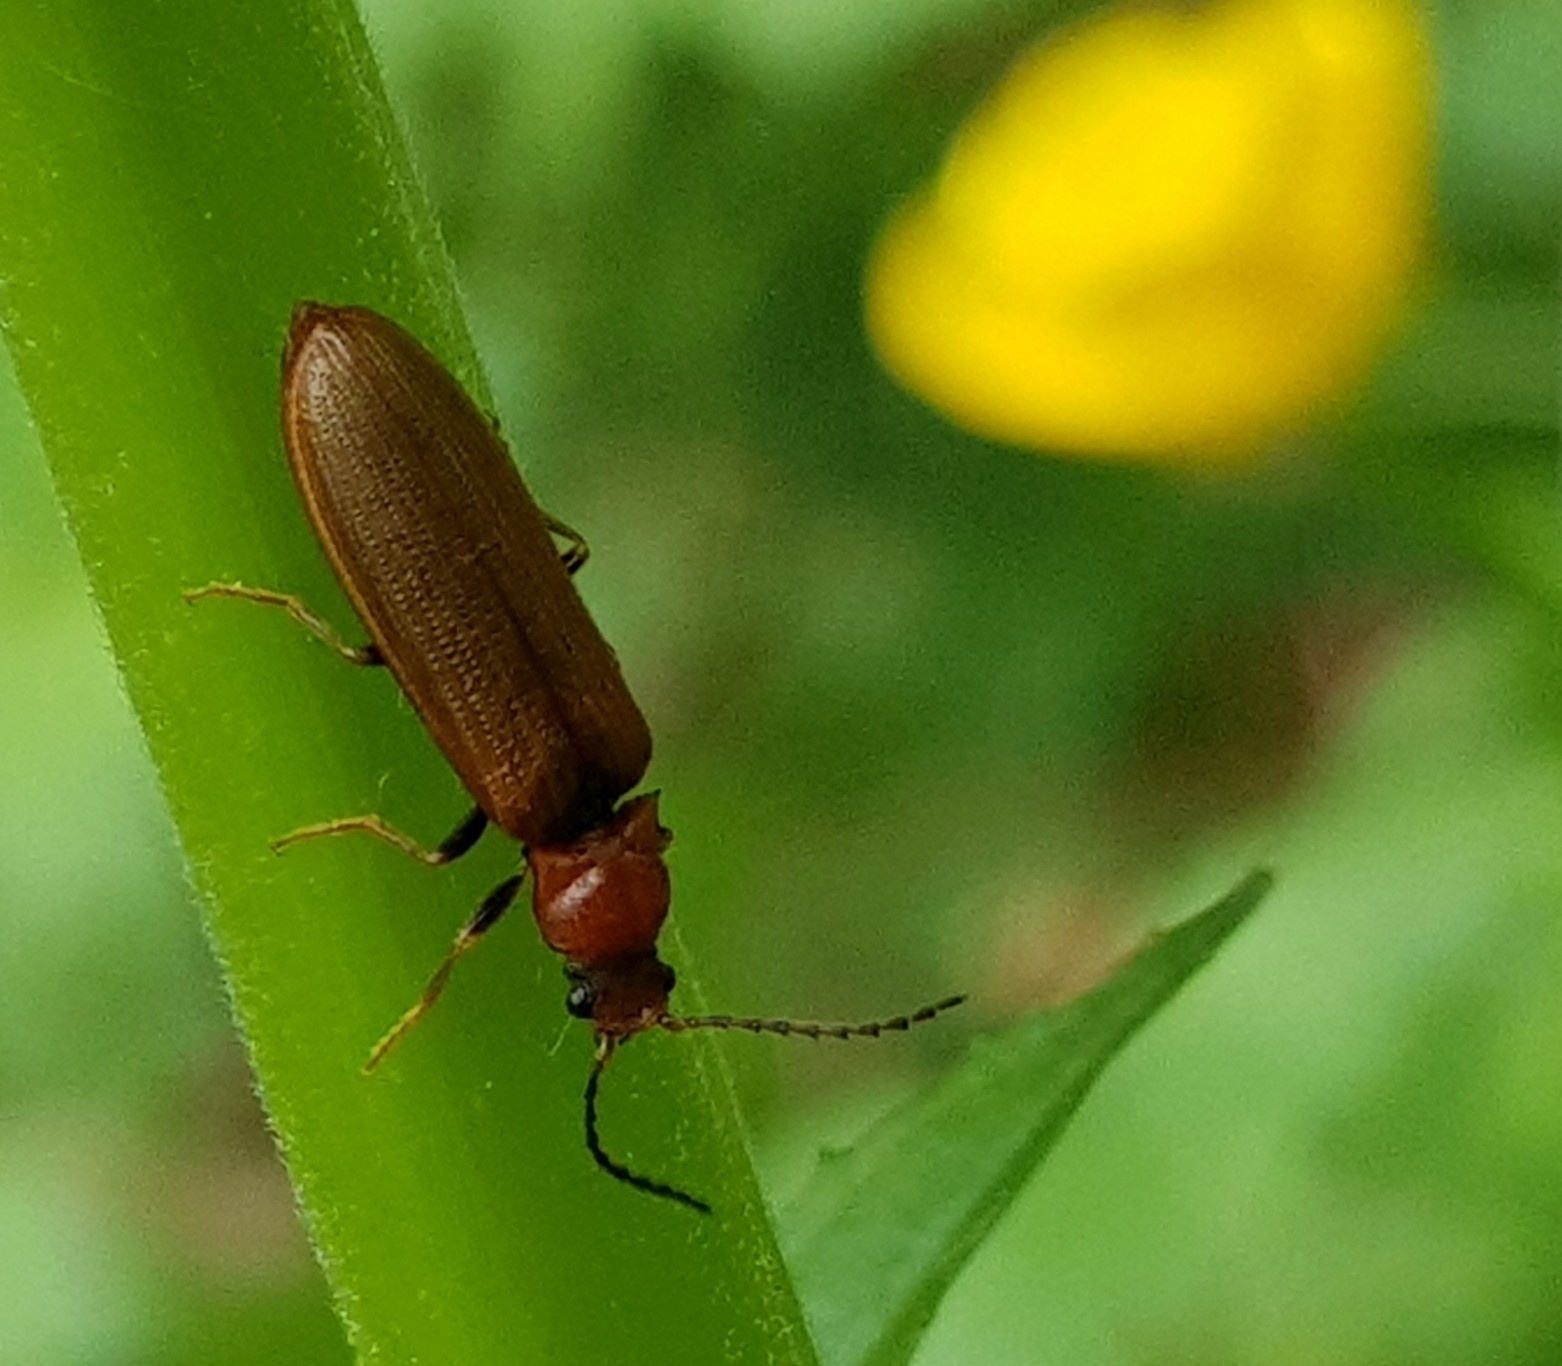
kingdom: Animalia
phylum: Arthropoda
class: Insecta
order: Coleoptera
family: Elateridae
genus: Denticollis
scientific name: Denticollis linearis
